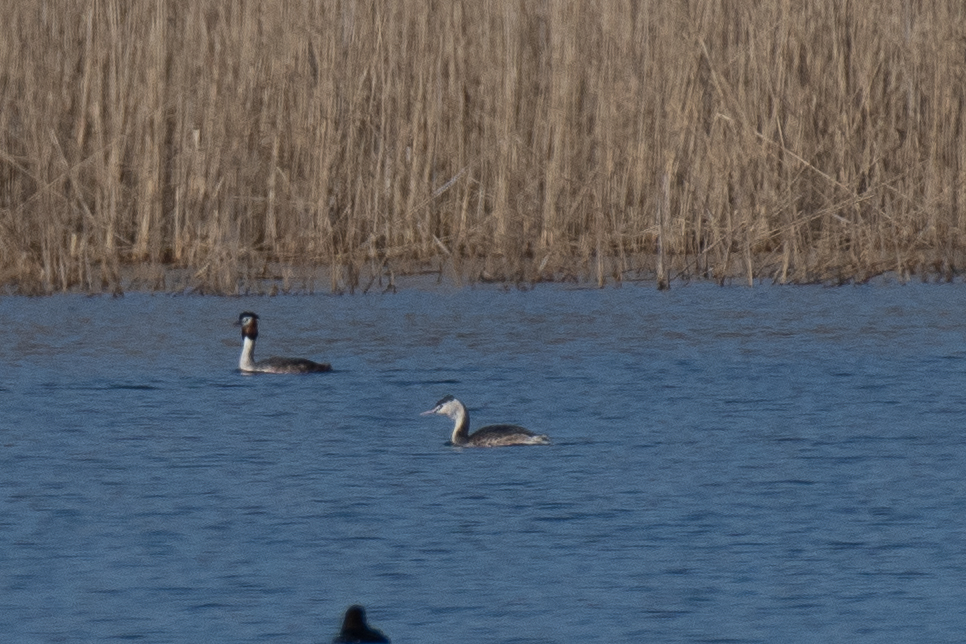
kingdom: Animalia
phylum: Chordata
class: Aves
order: Podicipediformes
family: Podicipedidae
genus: Podiceps
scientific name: Podiceps cristatus
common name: Great crested grebe
